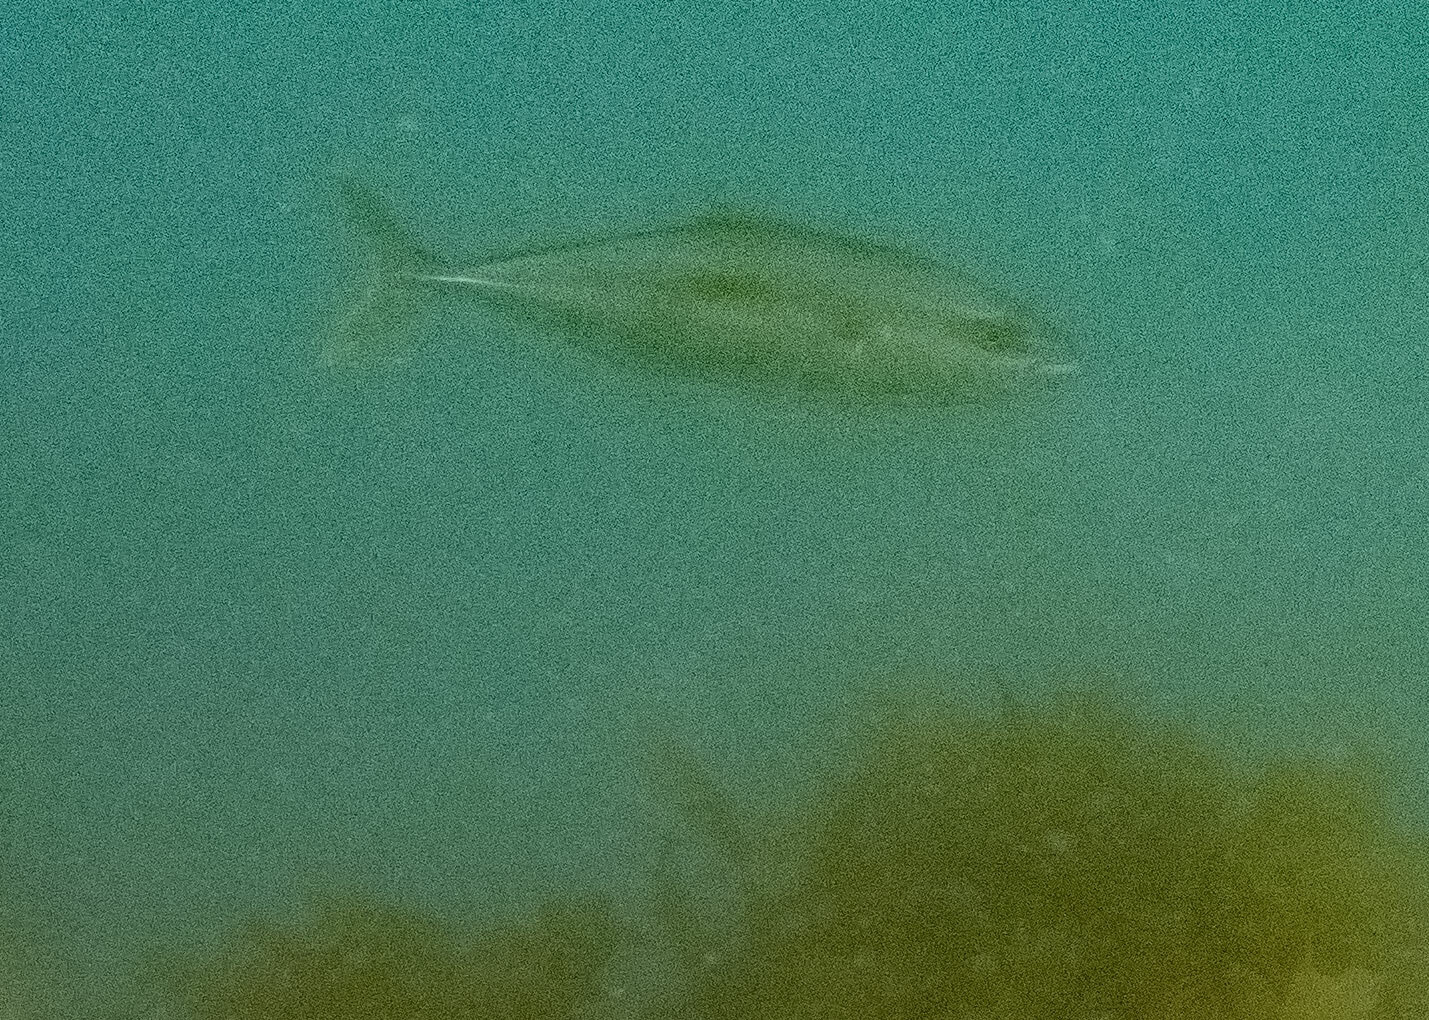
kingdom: Animalia
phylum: Chordata
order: Perciformes
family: Carangidae
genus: Seriola
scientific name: Seriola lalandi
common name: Yellowtail kingfish
